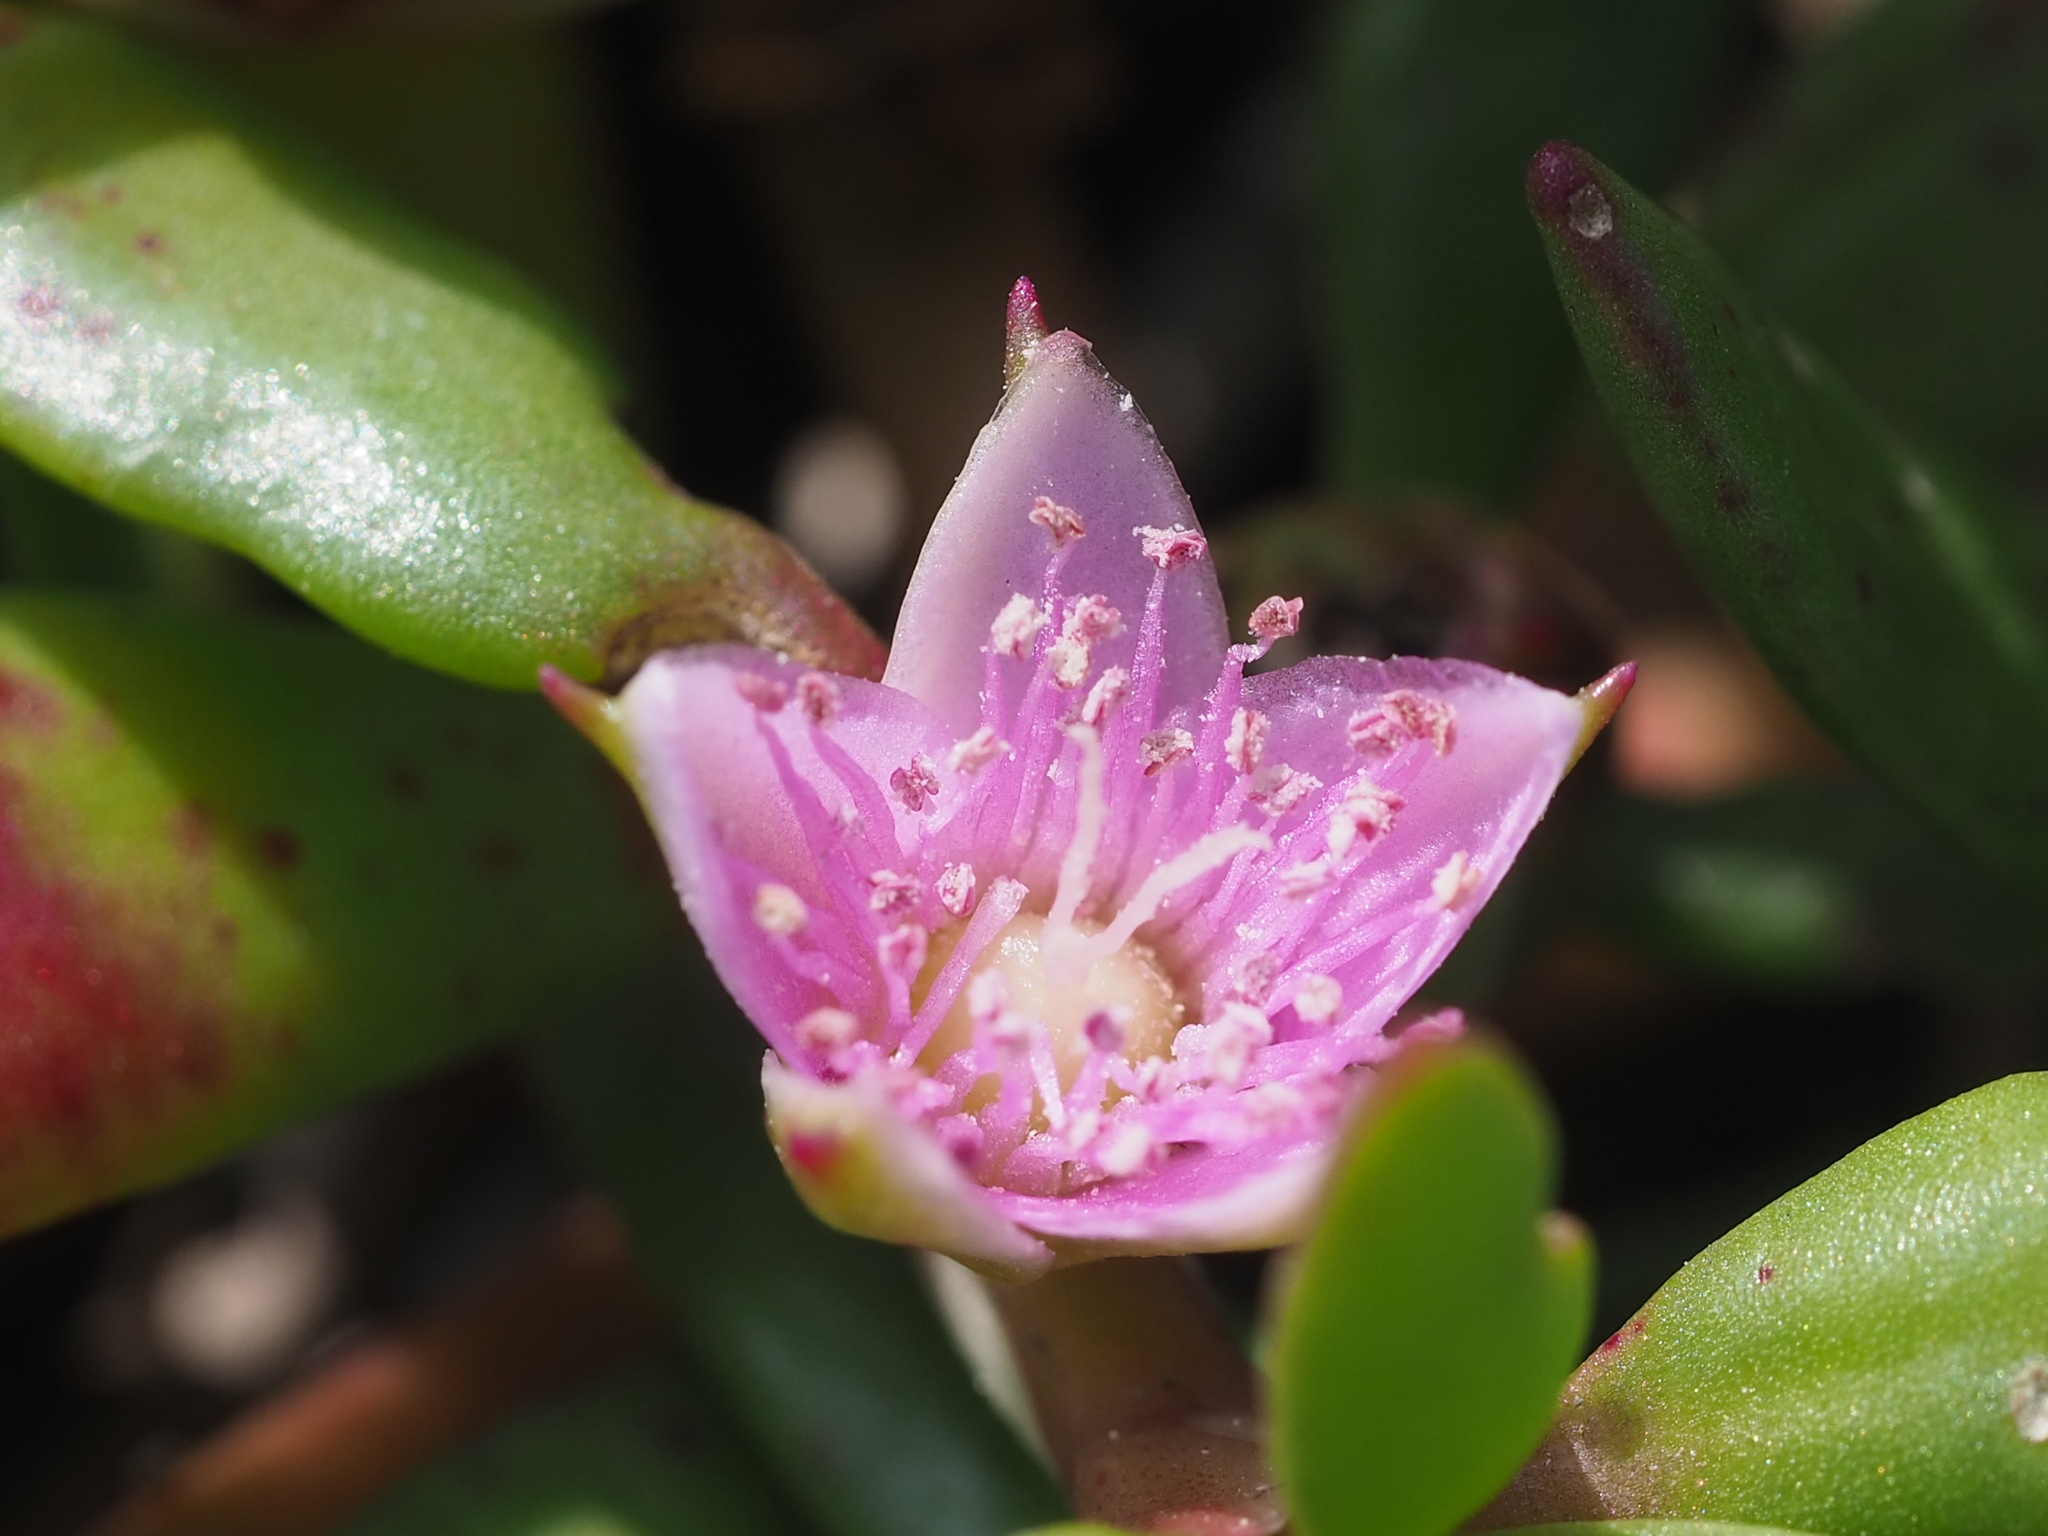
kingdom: Plantae
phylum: Tracheophyta
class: Magnoliopsida
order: Caryophyllales
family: Aizoaceae
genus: Sesuvium
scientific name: Sesuvium portulacastrum
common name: Sea-purslane
